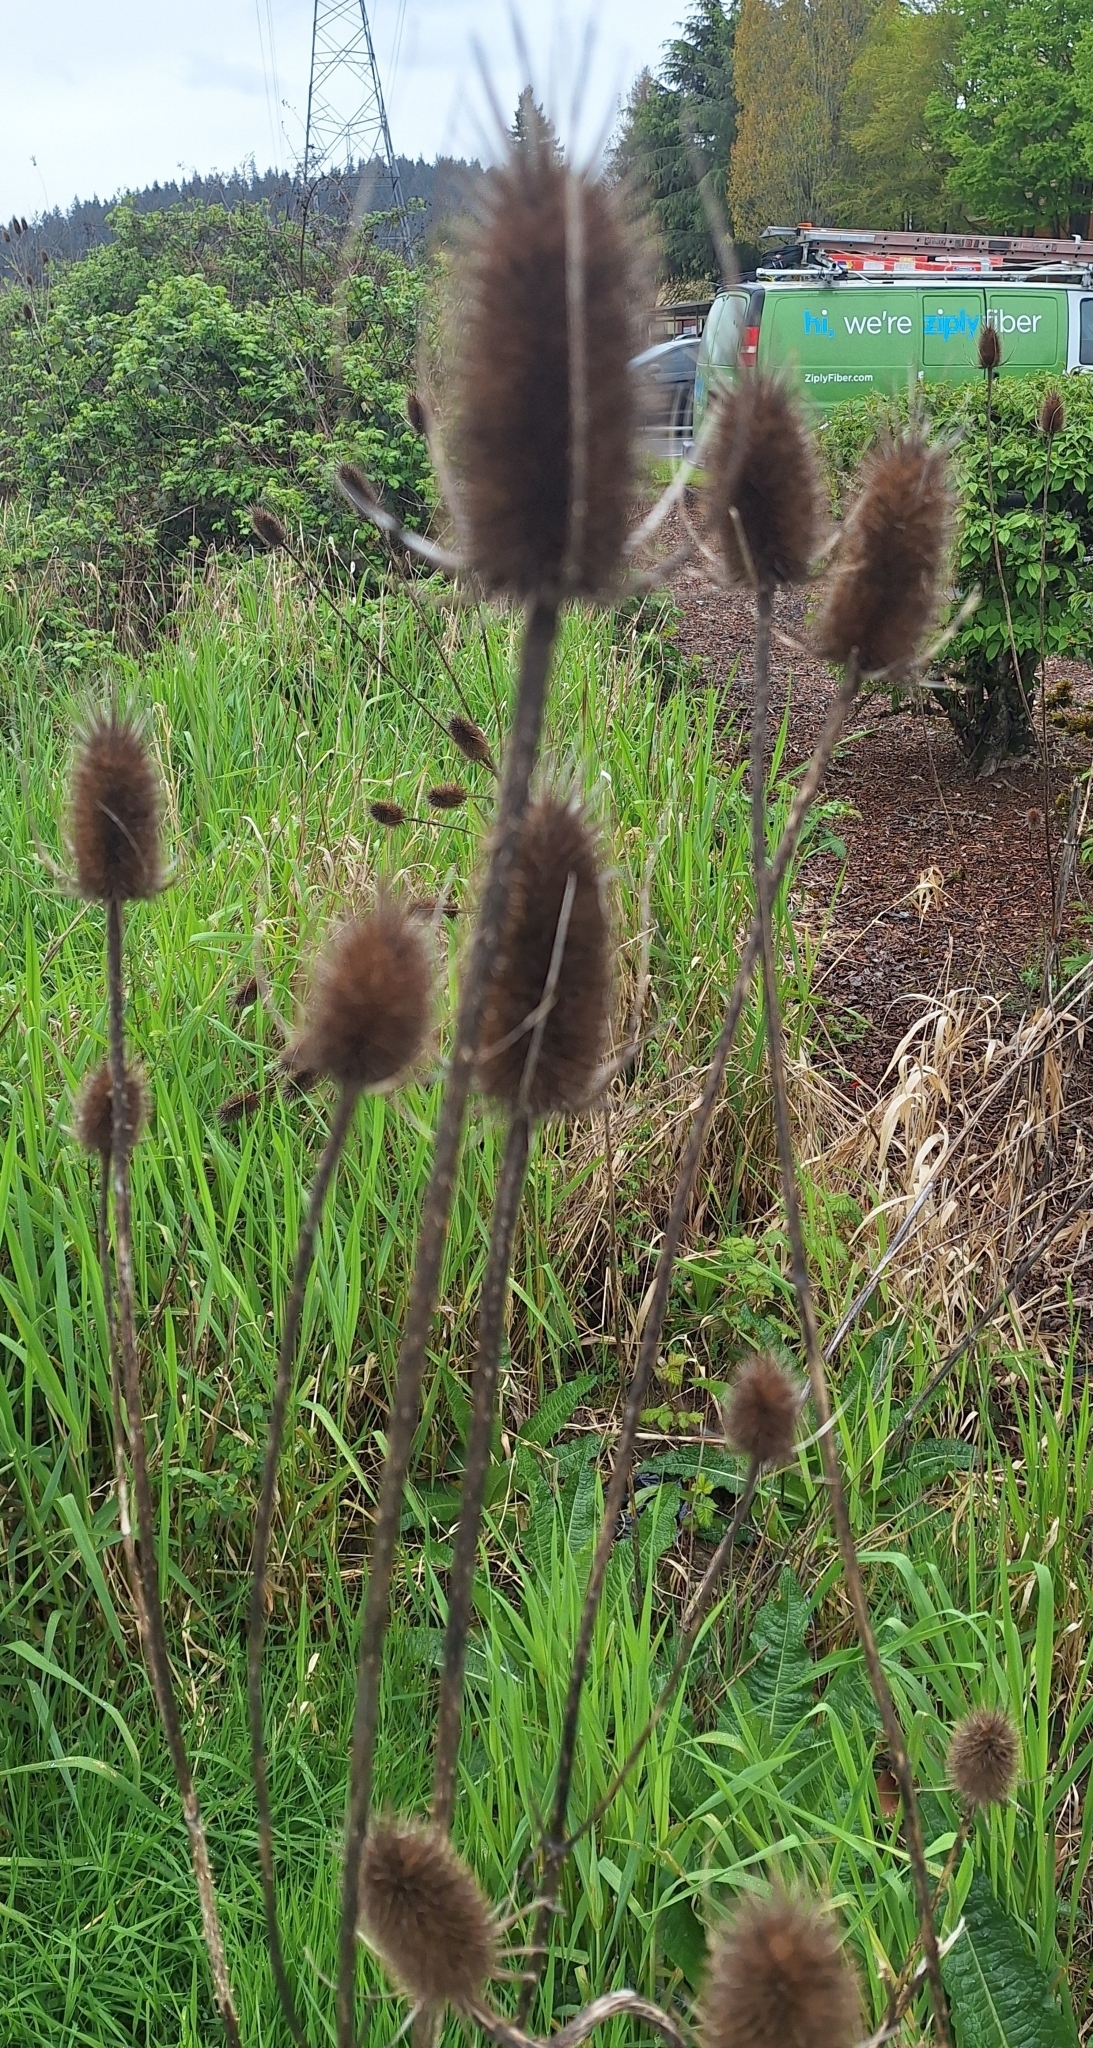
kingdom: Plantae
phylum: Tracheophyta
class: Magnoliopsida
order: Dipsacales
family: Caprifoliaceae
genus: Dipsacus
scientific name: Dipsacus fullonum
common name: Teasel
